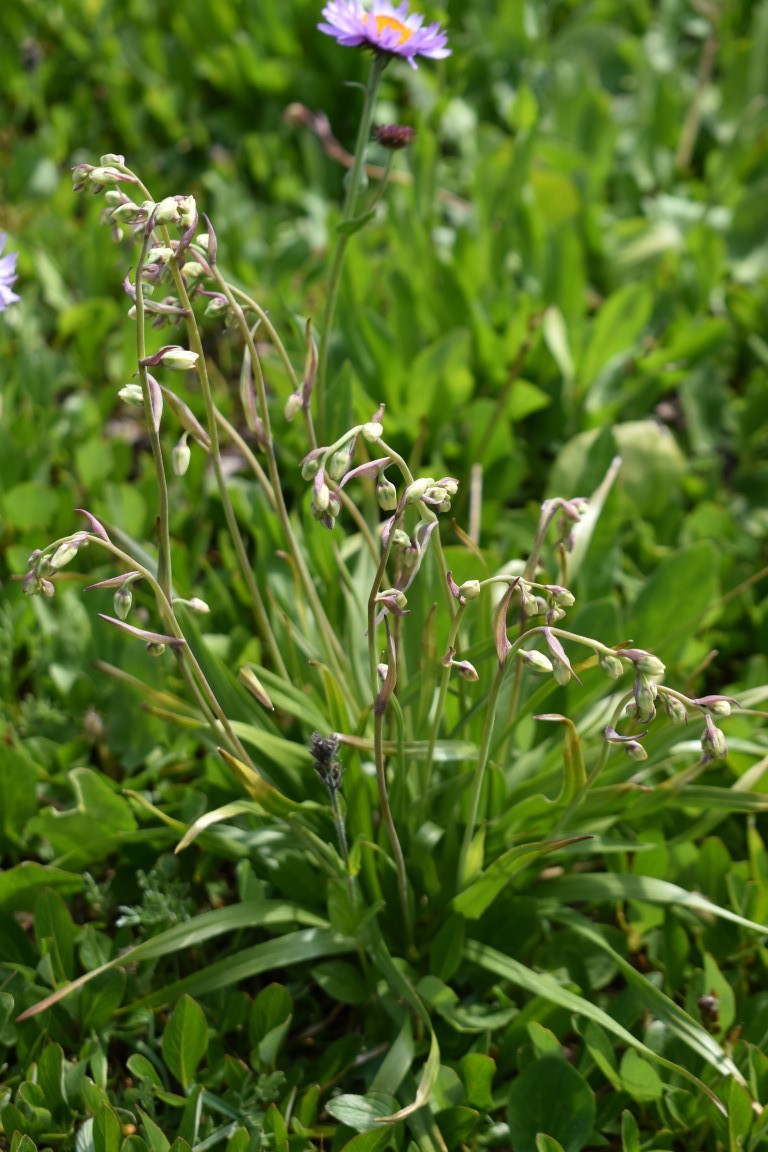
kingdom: Plantae
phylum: Tracheophyta
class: Liliopsida
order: Liliales
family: Melanthiaceae
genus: Anticlea
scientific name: Anticlea elegans
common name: Mountain death camas
